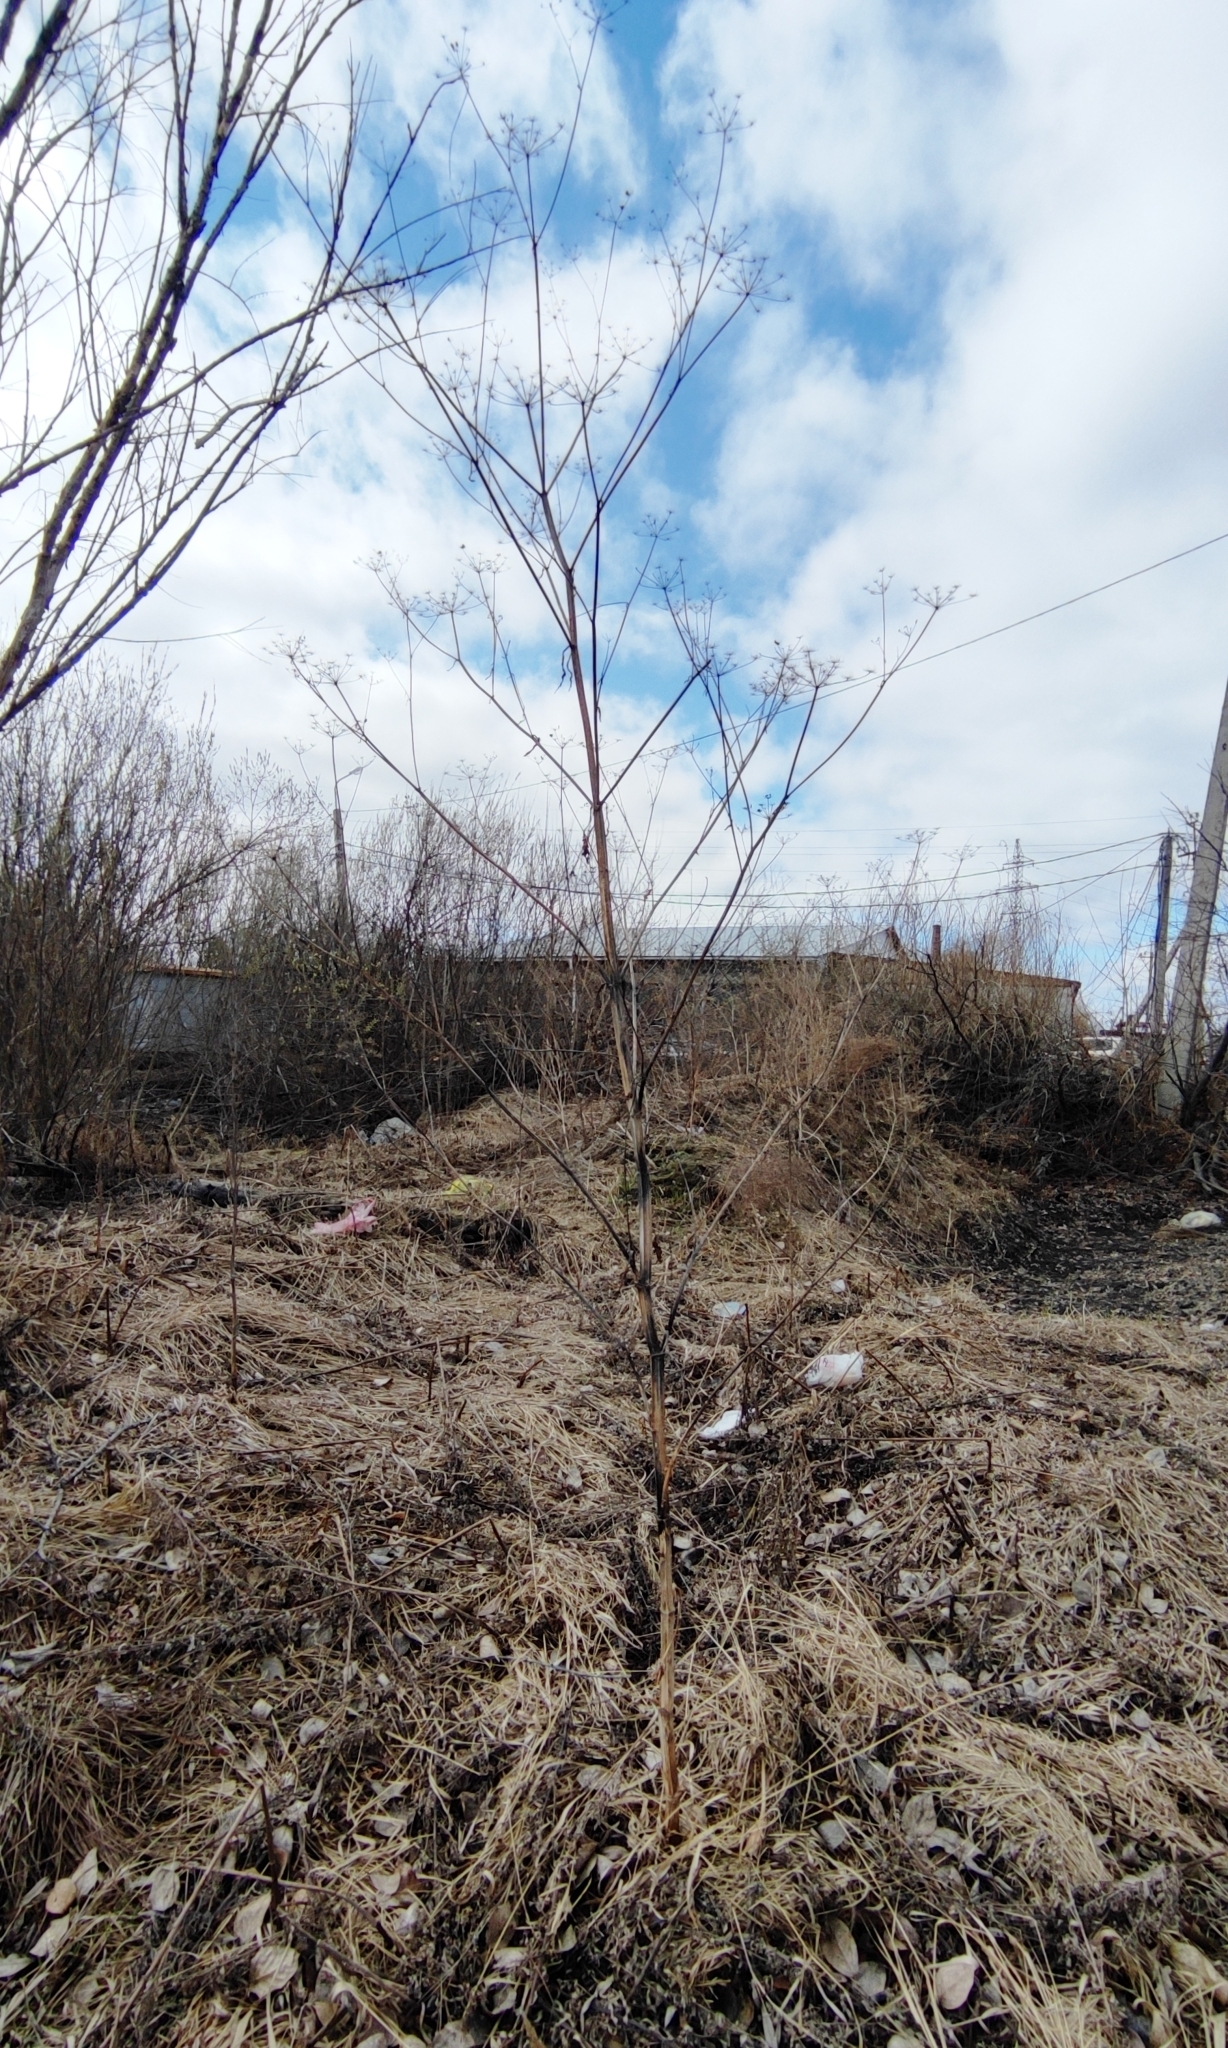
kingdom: Plantae
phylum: Tracheophyta
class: Magnoliopsida
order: Apiales
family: Apiaceae
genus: Pastinaca
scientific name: Pastinaca sativa
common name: Wild parsnip
